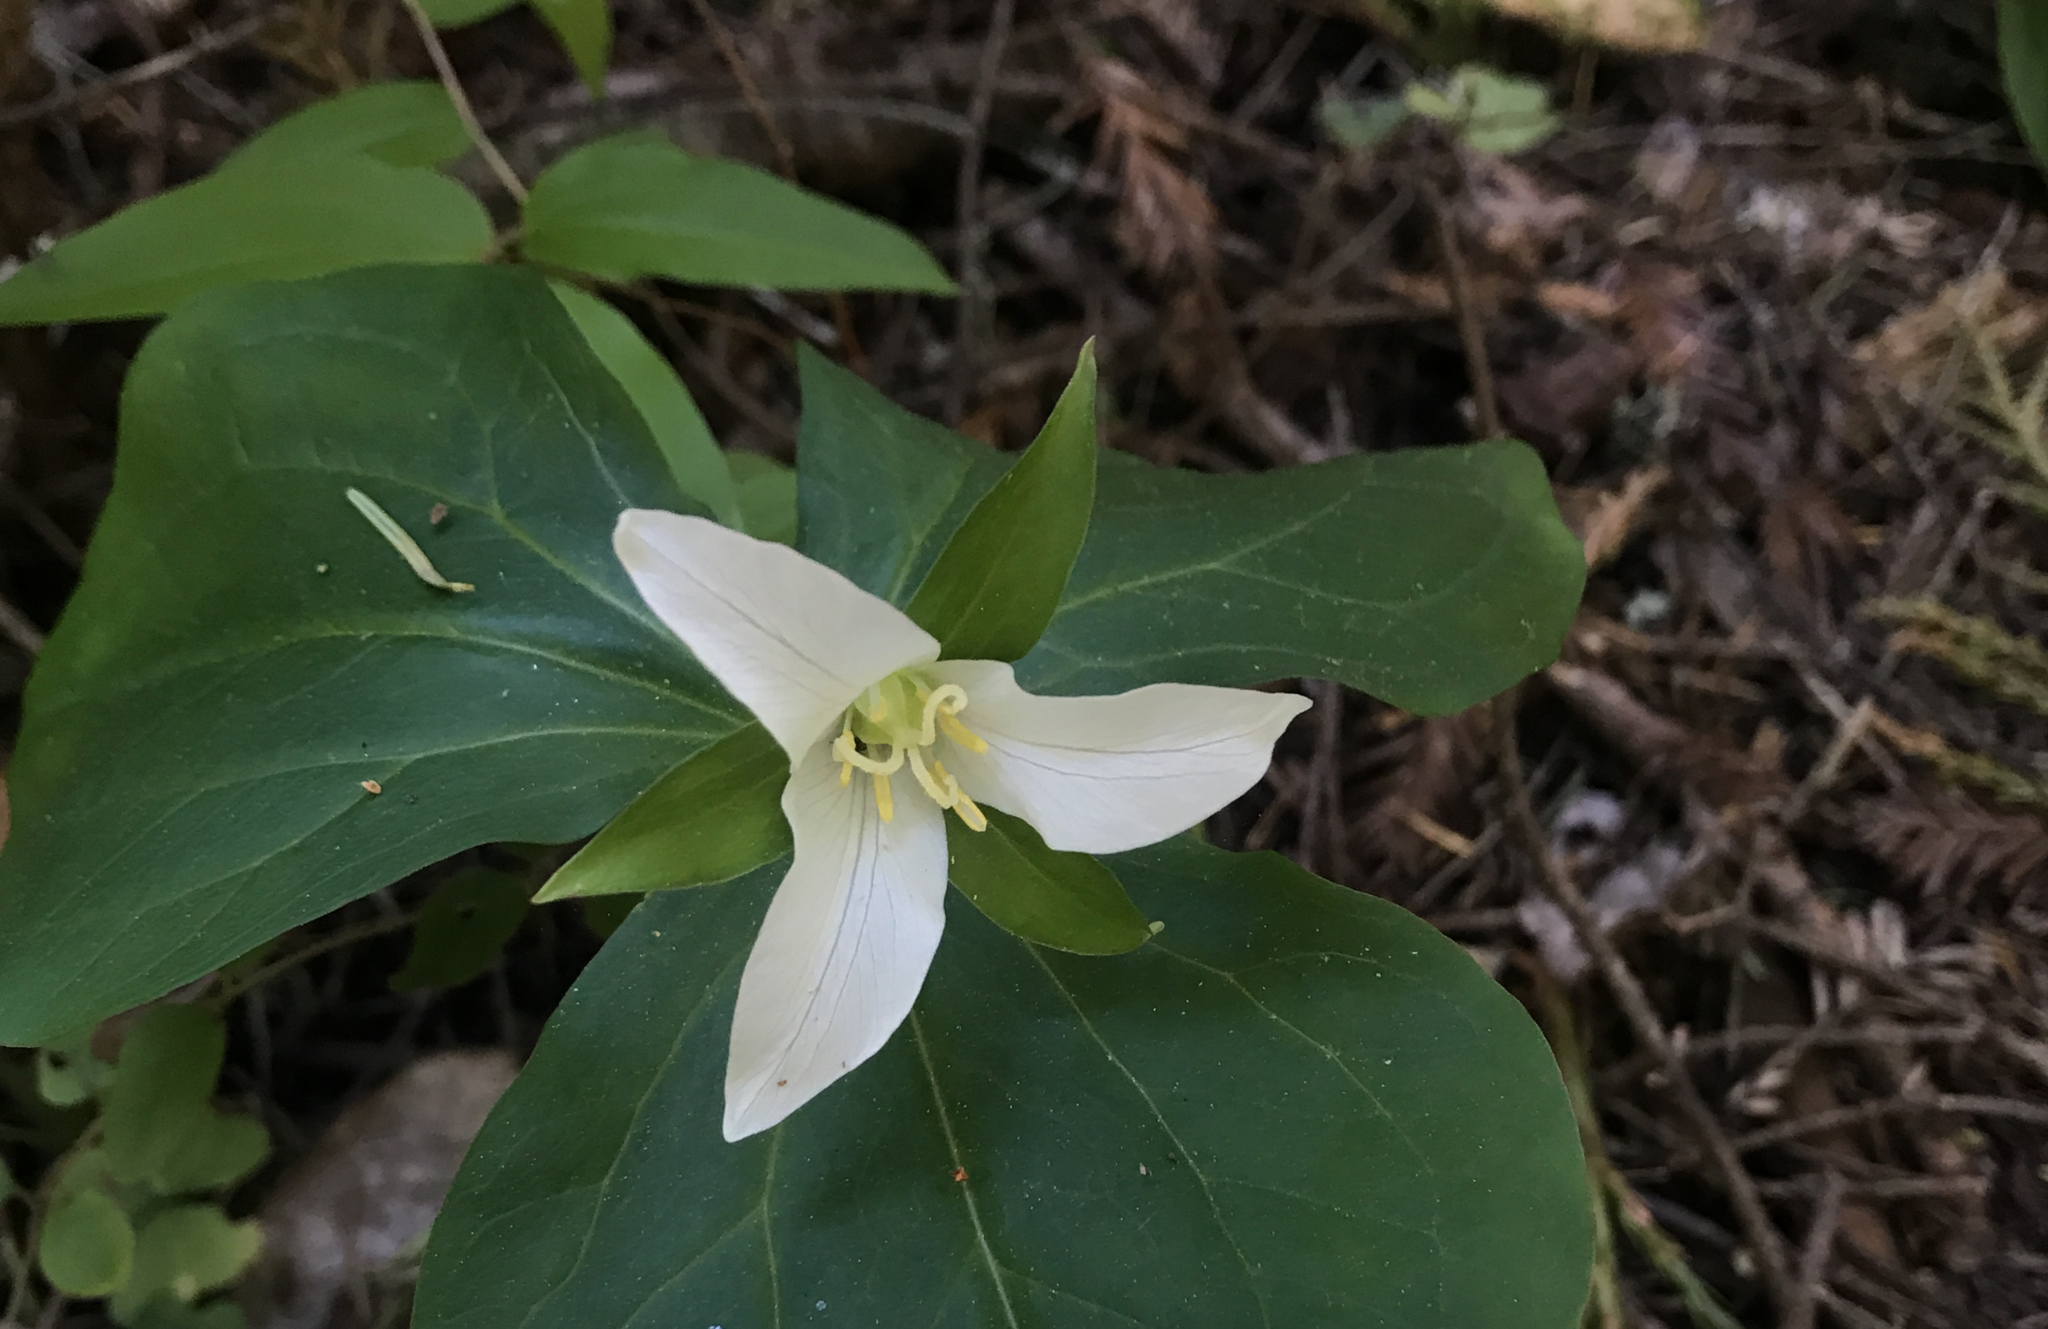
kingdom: Plantae
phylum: Tracheophyta
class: Liliopsida
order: Liliales
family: Melanthiaceae
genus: Trillium
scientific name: Trillium ovatum
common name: Pacific trillium
